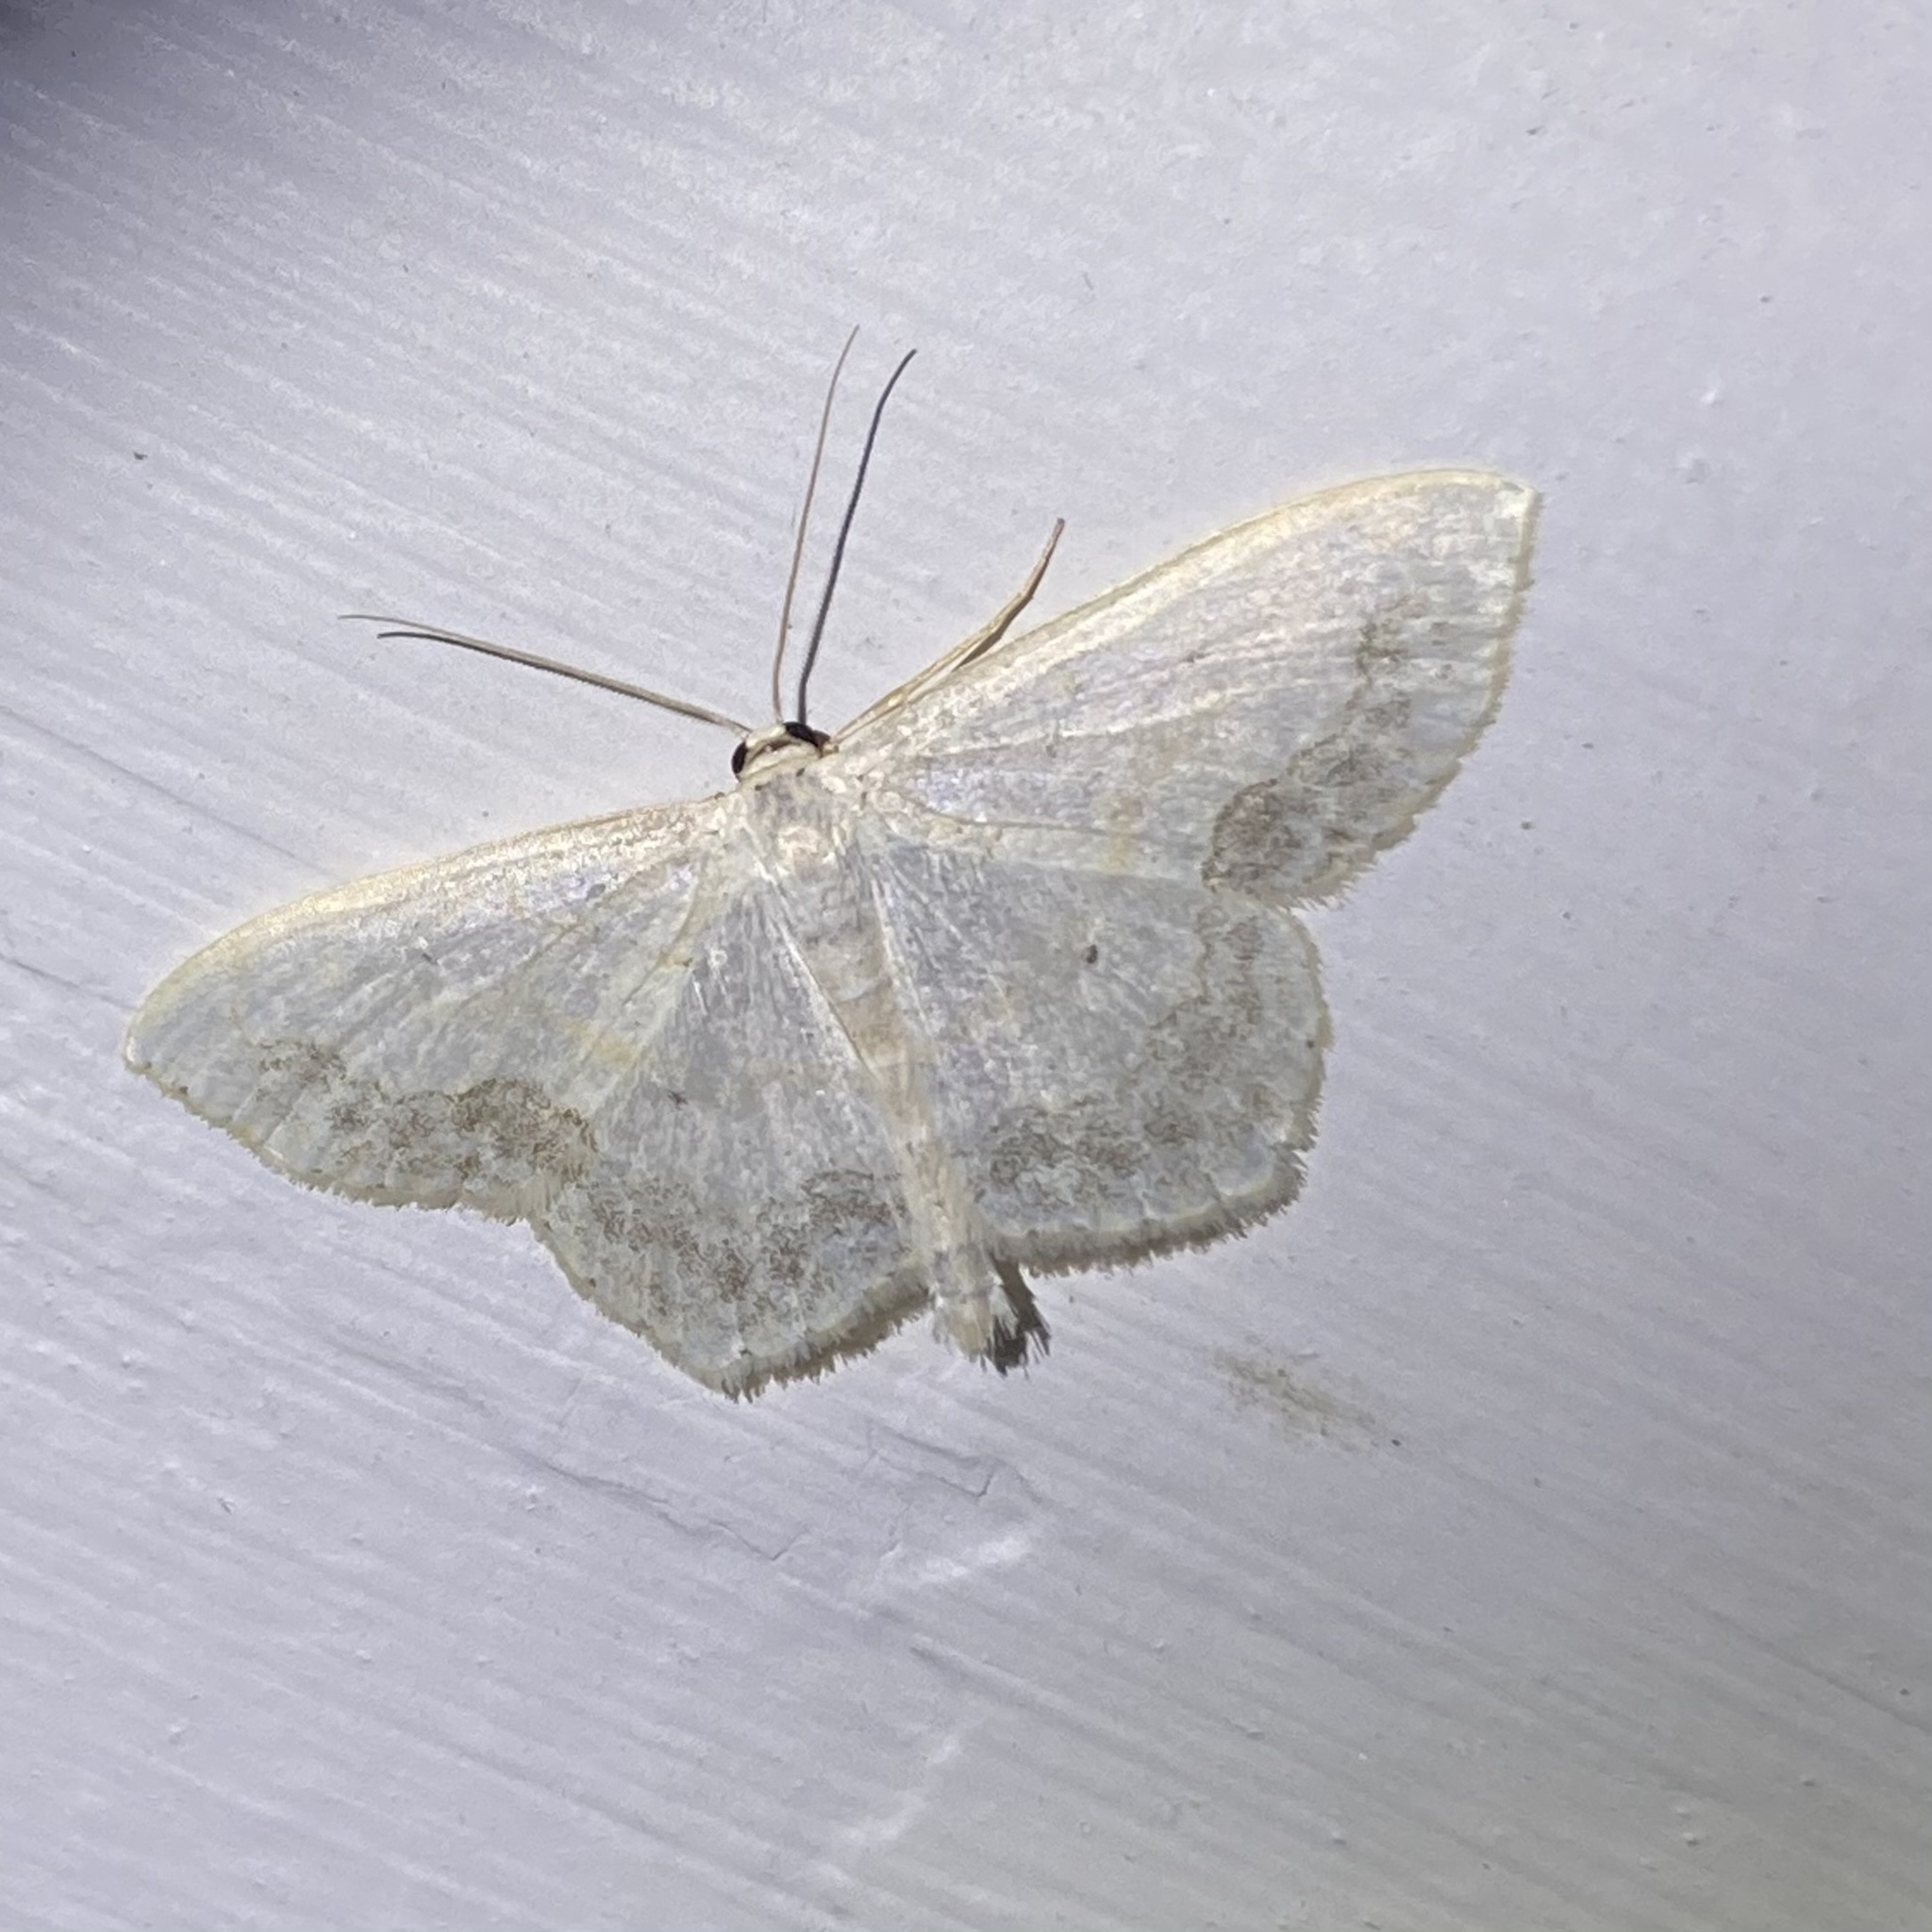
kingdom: Animalia
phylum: Arthropoda
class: Insecta
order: Lepidoptera
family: Geometridae
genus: Scopula
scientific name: Scopula limboundata
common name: Large lace border
